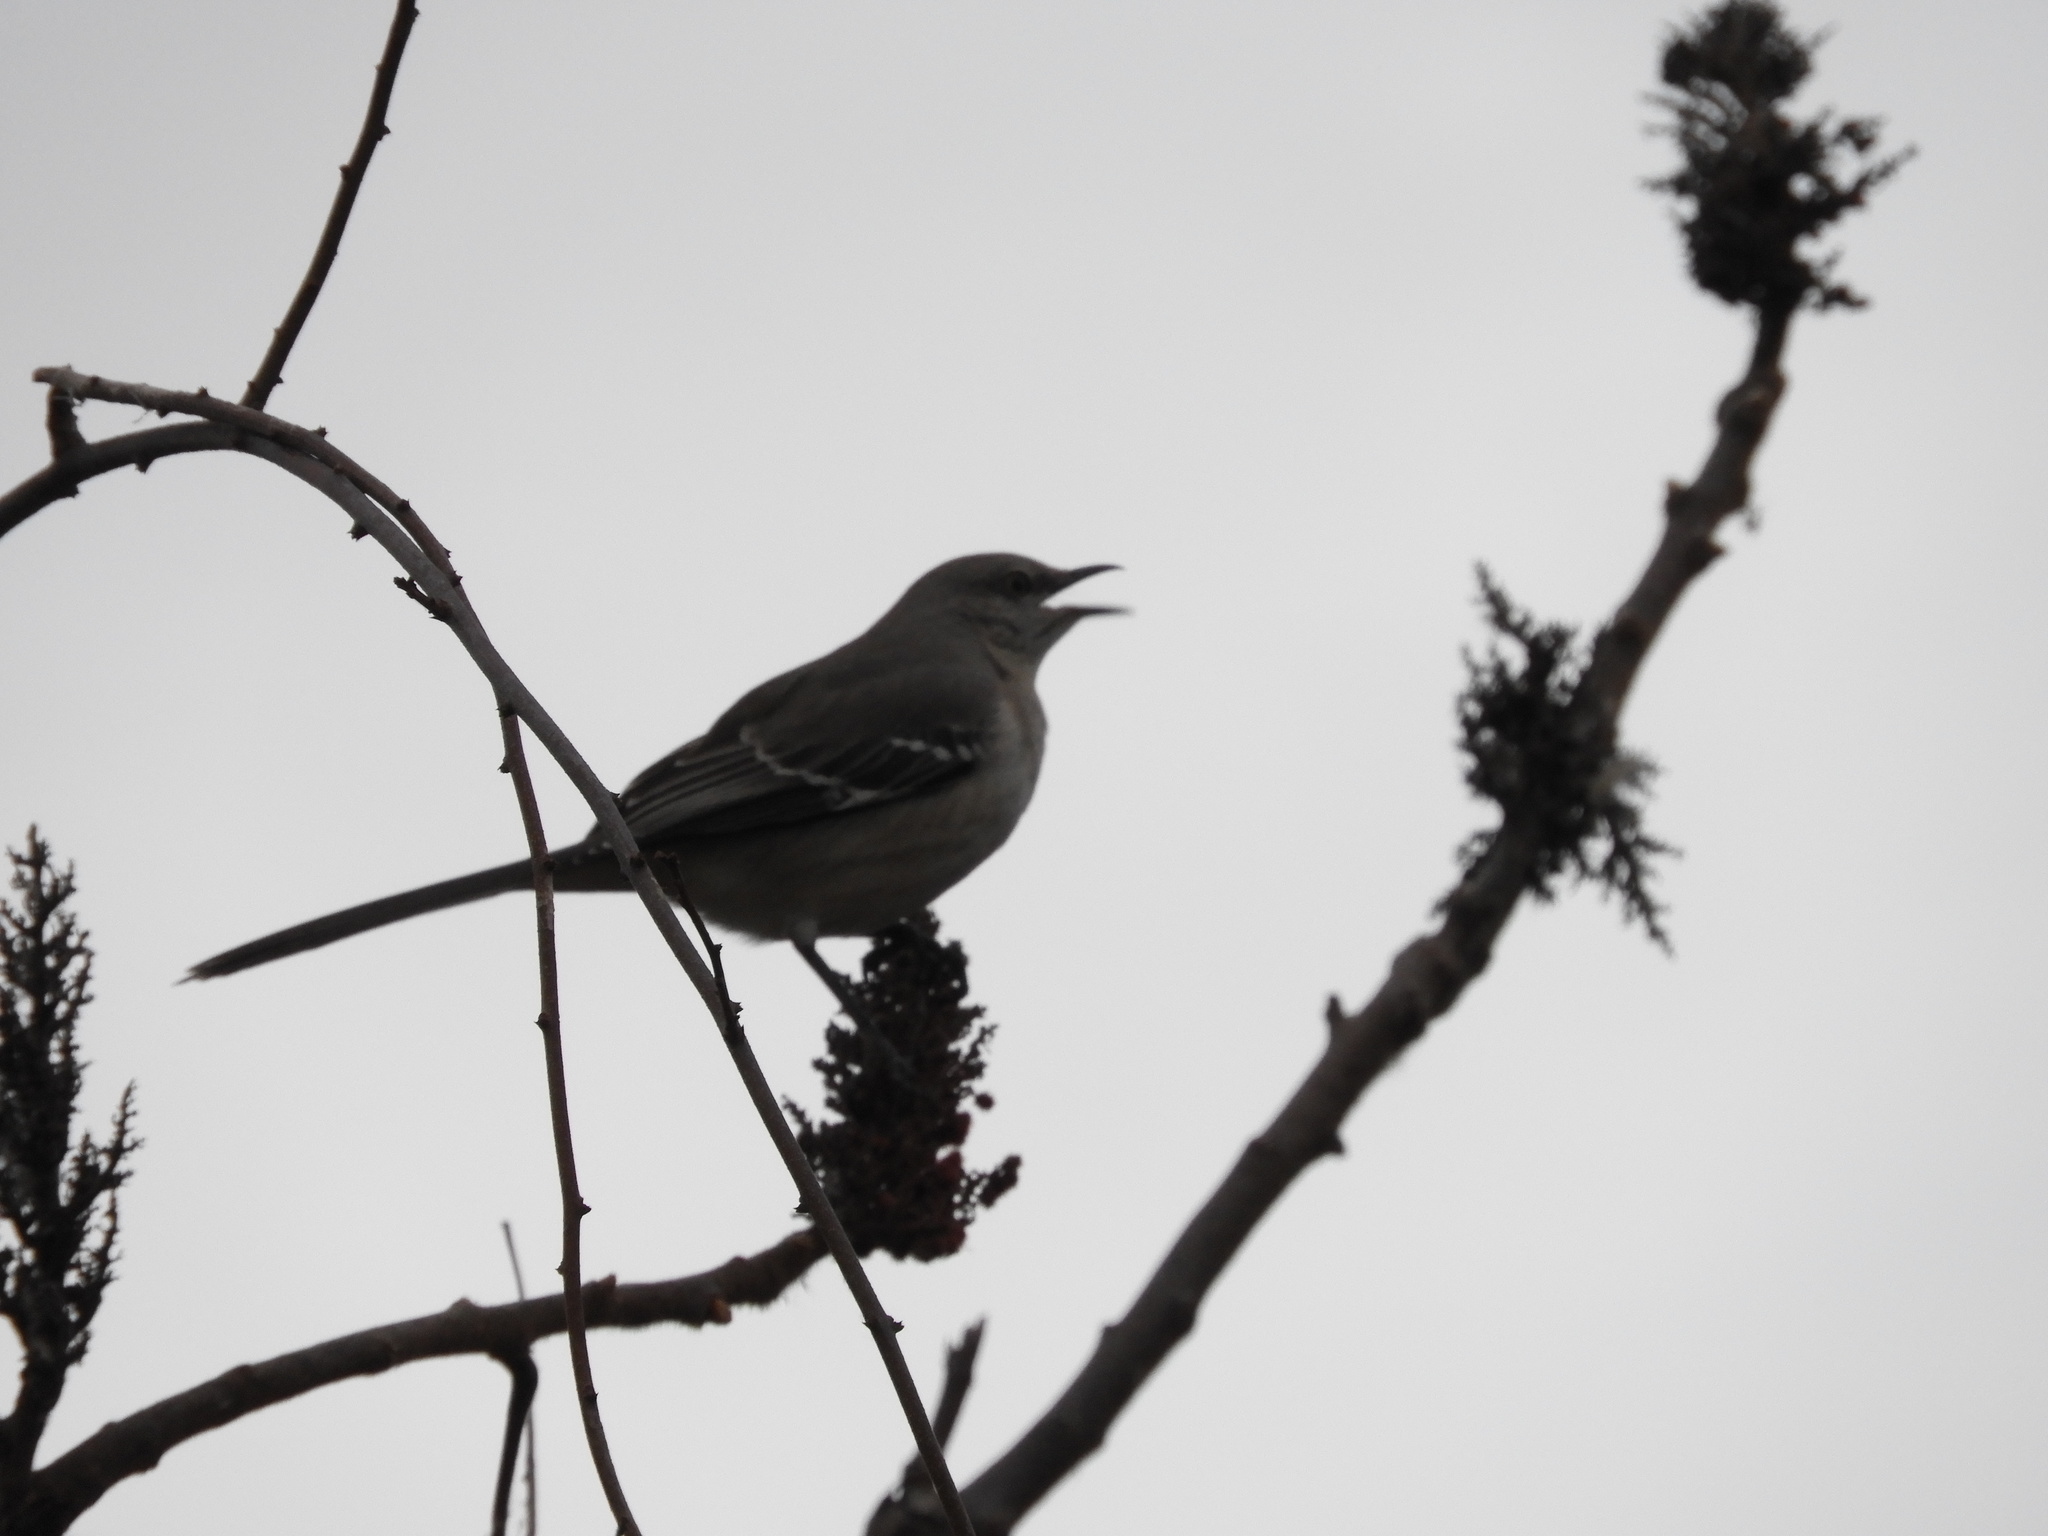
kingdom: Animalia
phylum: Chordata
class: Aves
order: Passeriformes
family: Mimidae
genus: Mimus
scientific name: Mimus polyglottos
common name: Northern mockingbird
